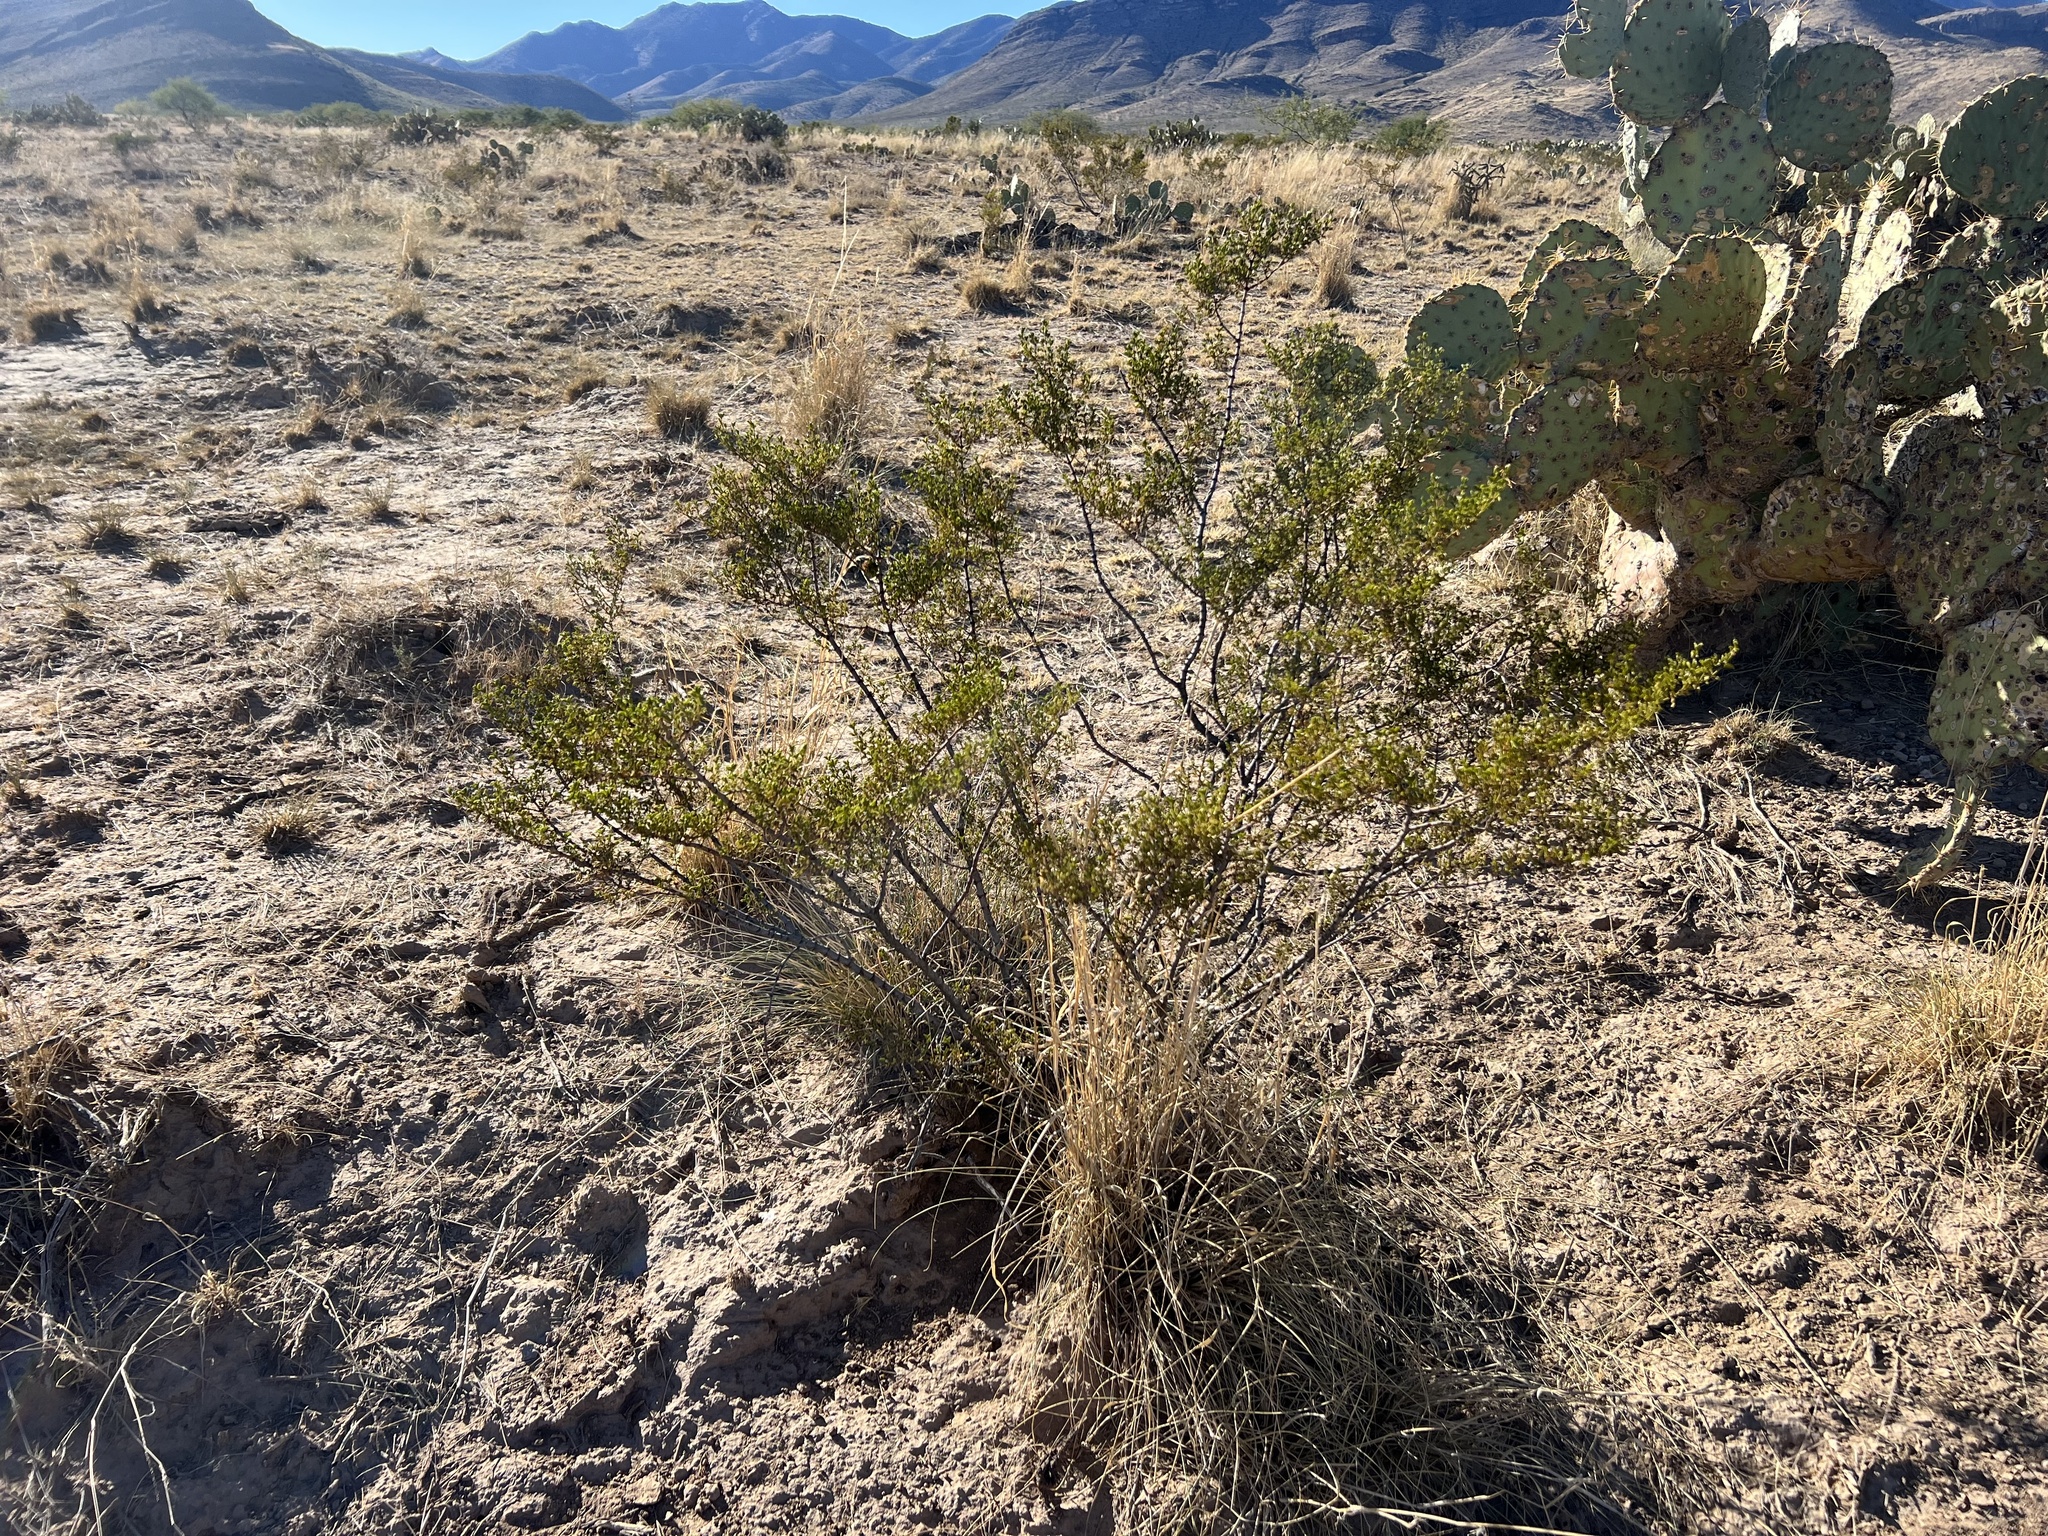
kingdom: Plantae
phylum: Tracheophyta
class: Magnoliopsida
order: Zygophyllales
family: Zygophyllaceae
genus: Larrea
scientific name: Larrea tridentata
